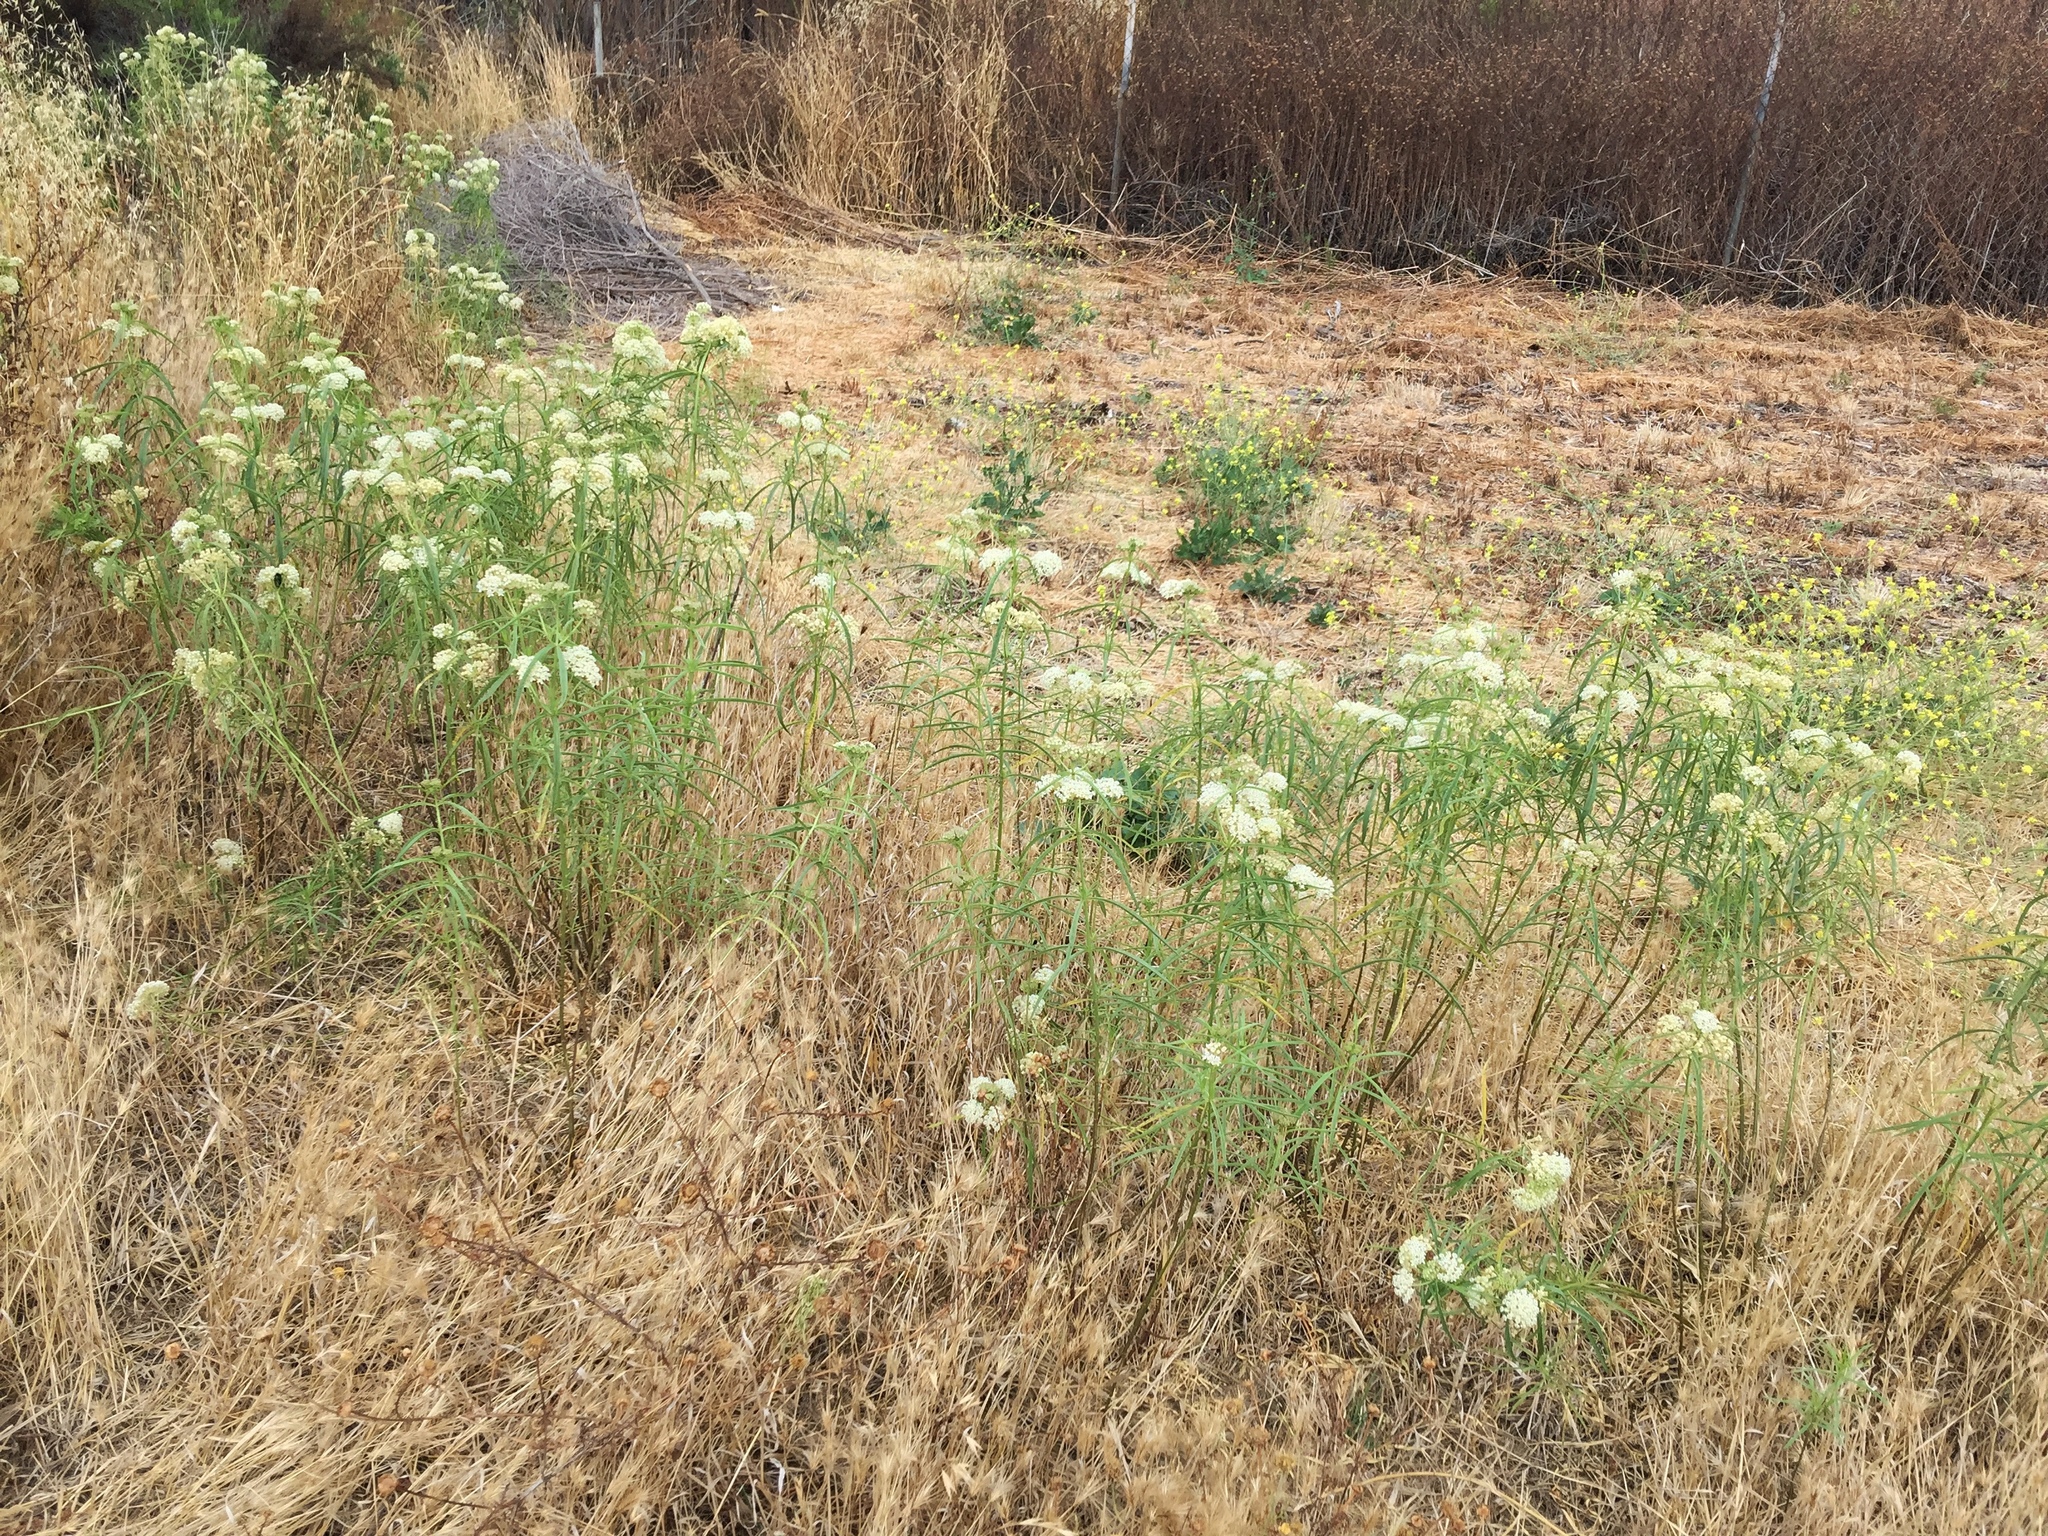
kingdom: Plantae
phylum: Tracheophyta
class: Magnoliopsida
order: Gentianales
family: Apocynaceae
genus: Asclepias
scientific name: Asclepias fascicularis
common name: Mexican milkweed
